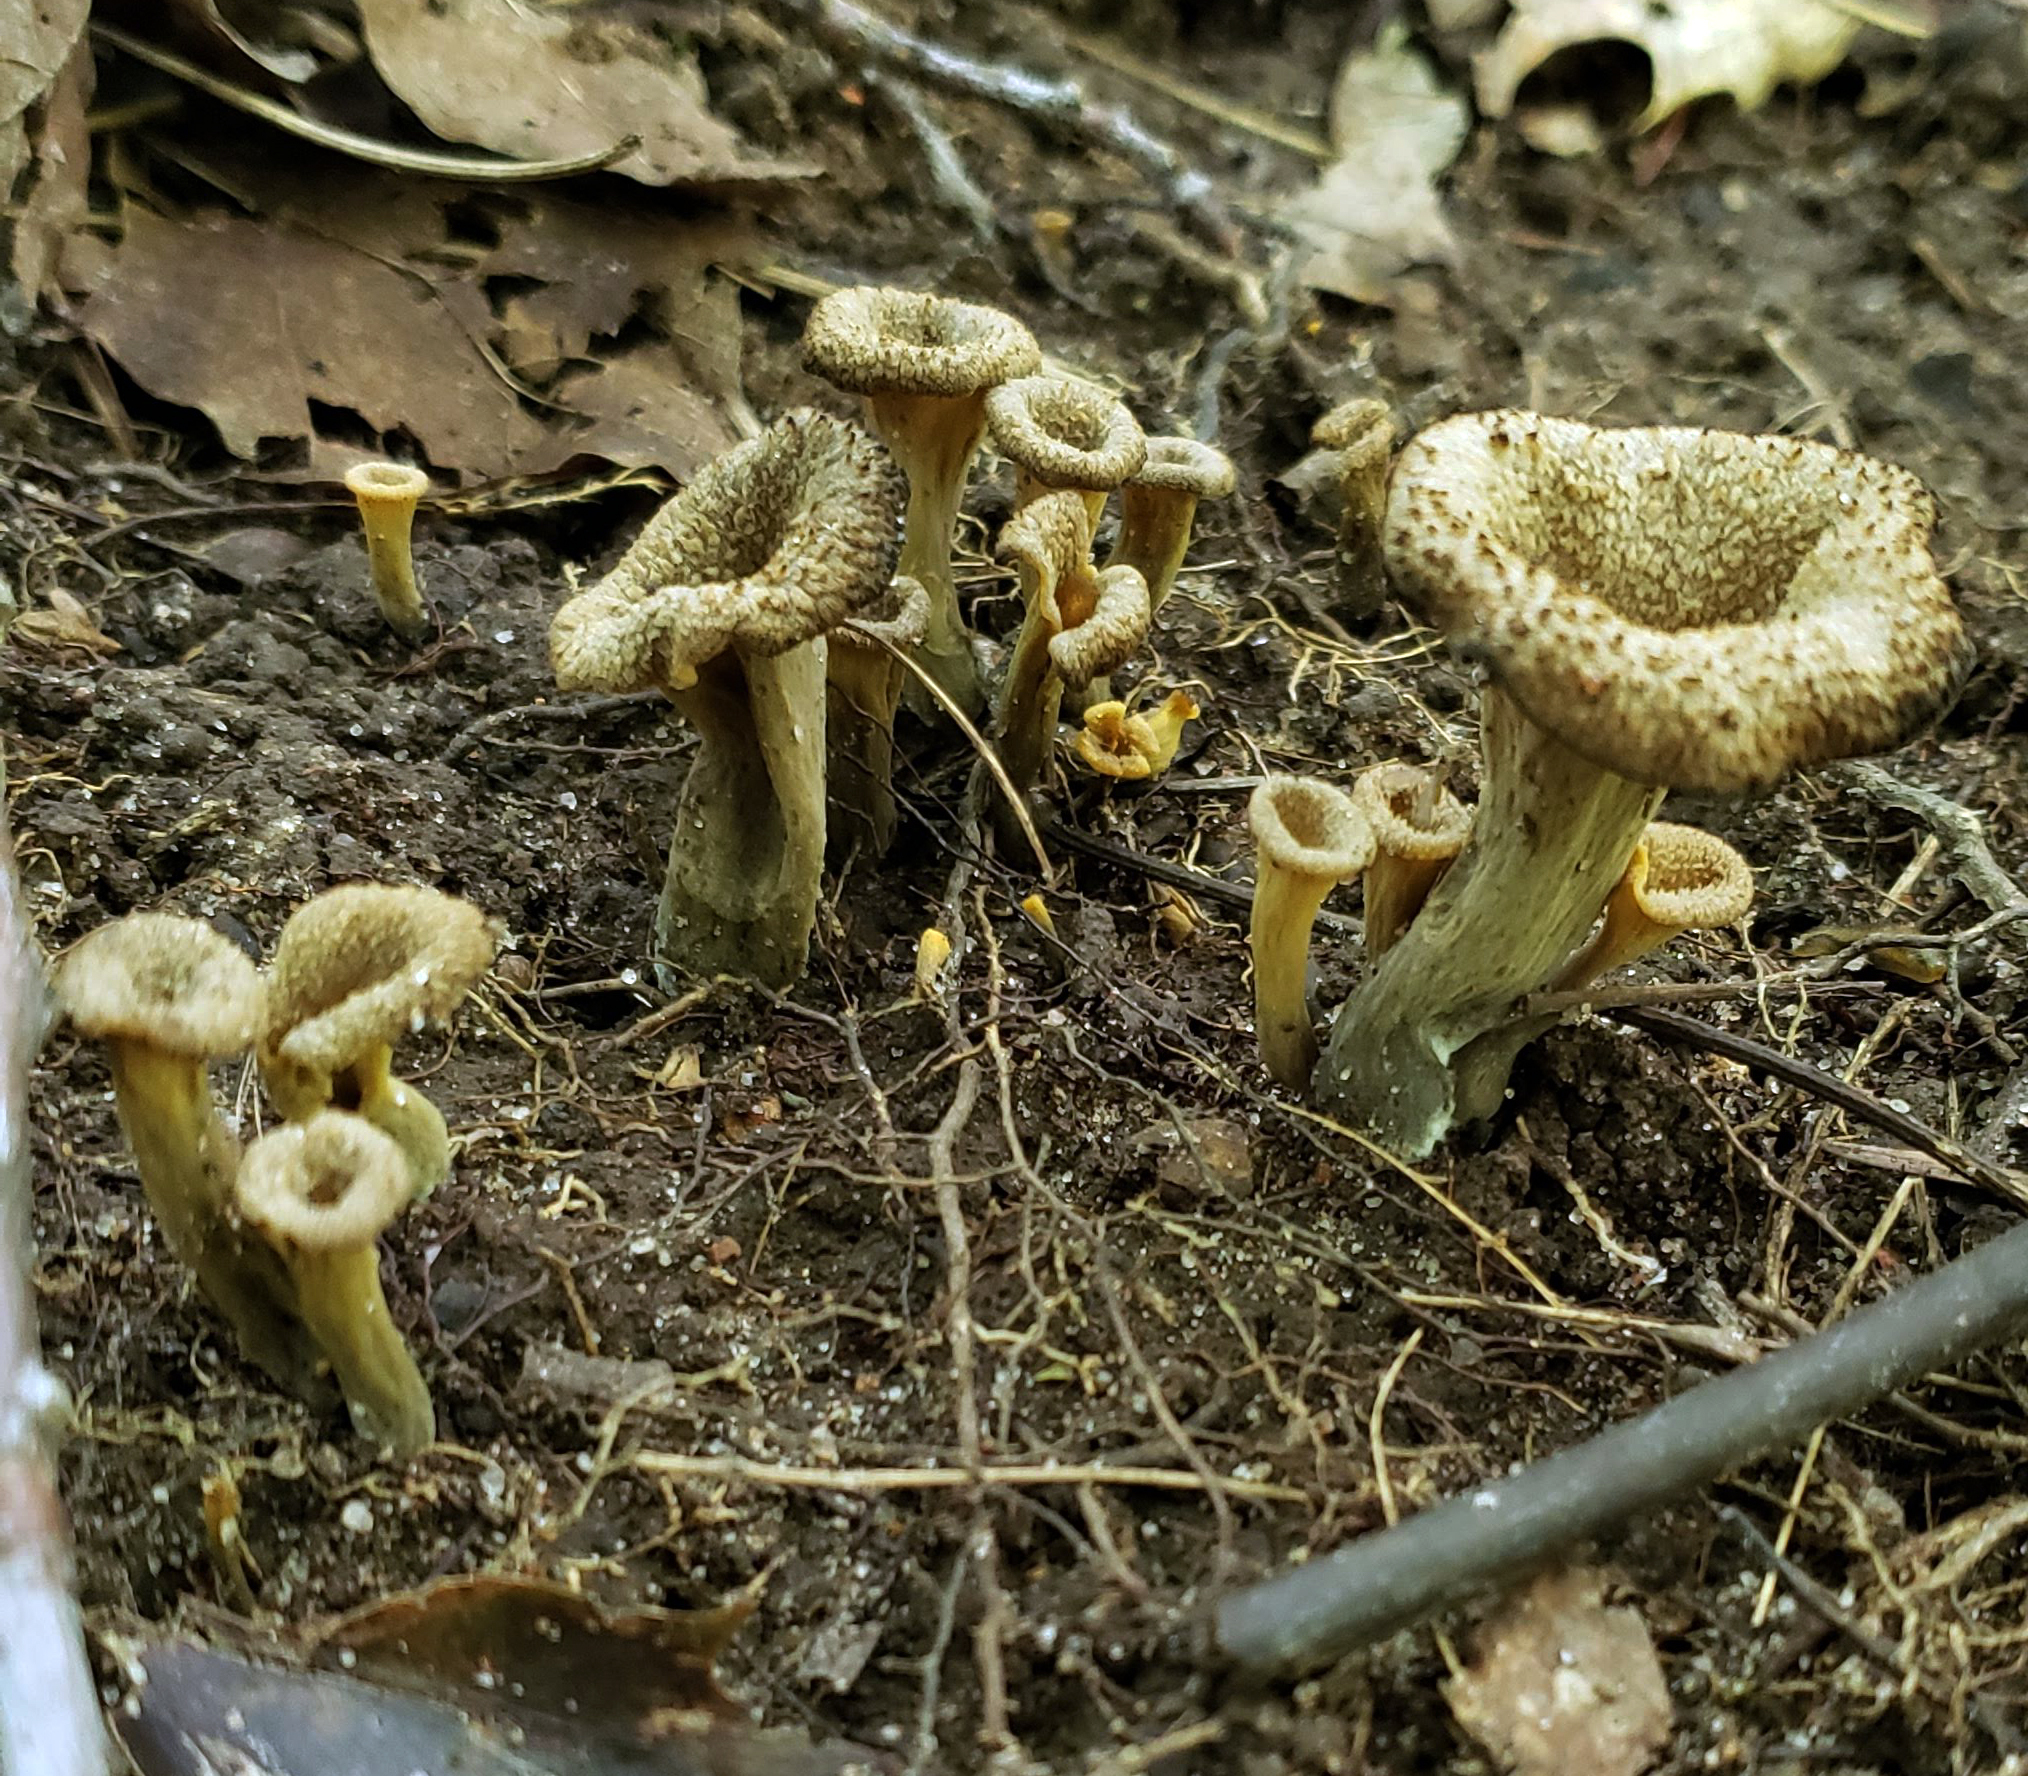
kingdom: Fungi
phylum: Basidiomycota
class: Agaricomycetes
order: Cantharellales
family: Hydnaceae
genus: Craterellus
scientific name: Craterellus cornucopioides
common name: Horn of plenty
